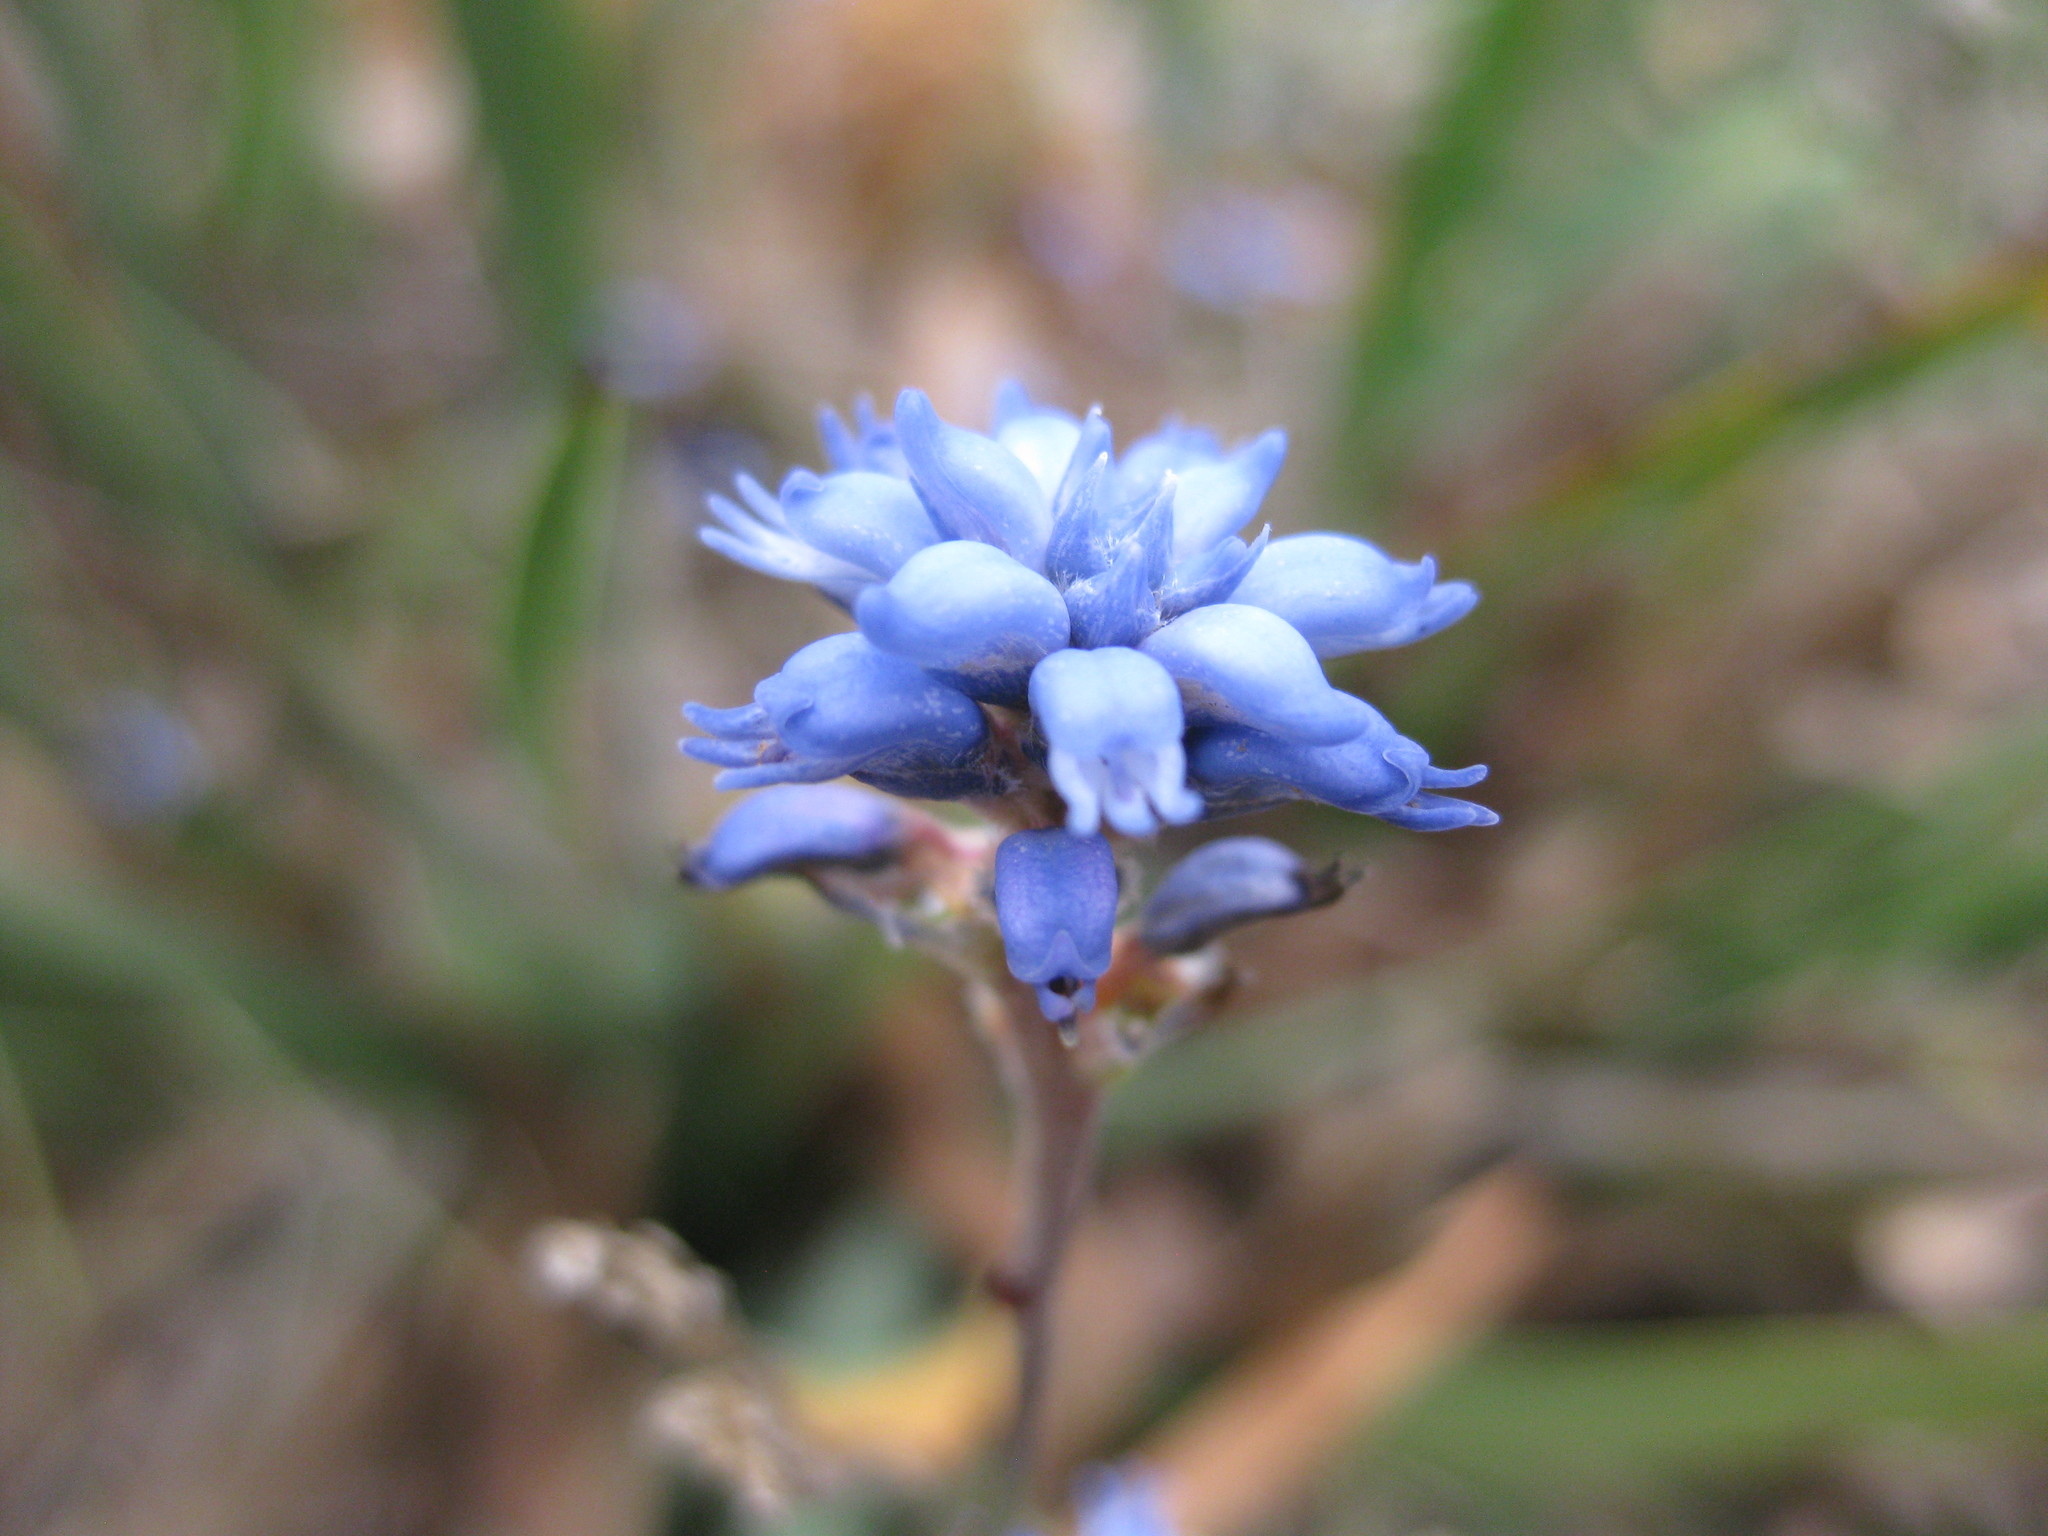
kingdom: Plantae
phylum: Tracheophyta
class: Magnoliopsida
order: Proteales
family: Proteaceae
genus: Conospermum
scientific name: Conospermum caeruleum
